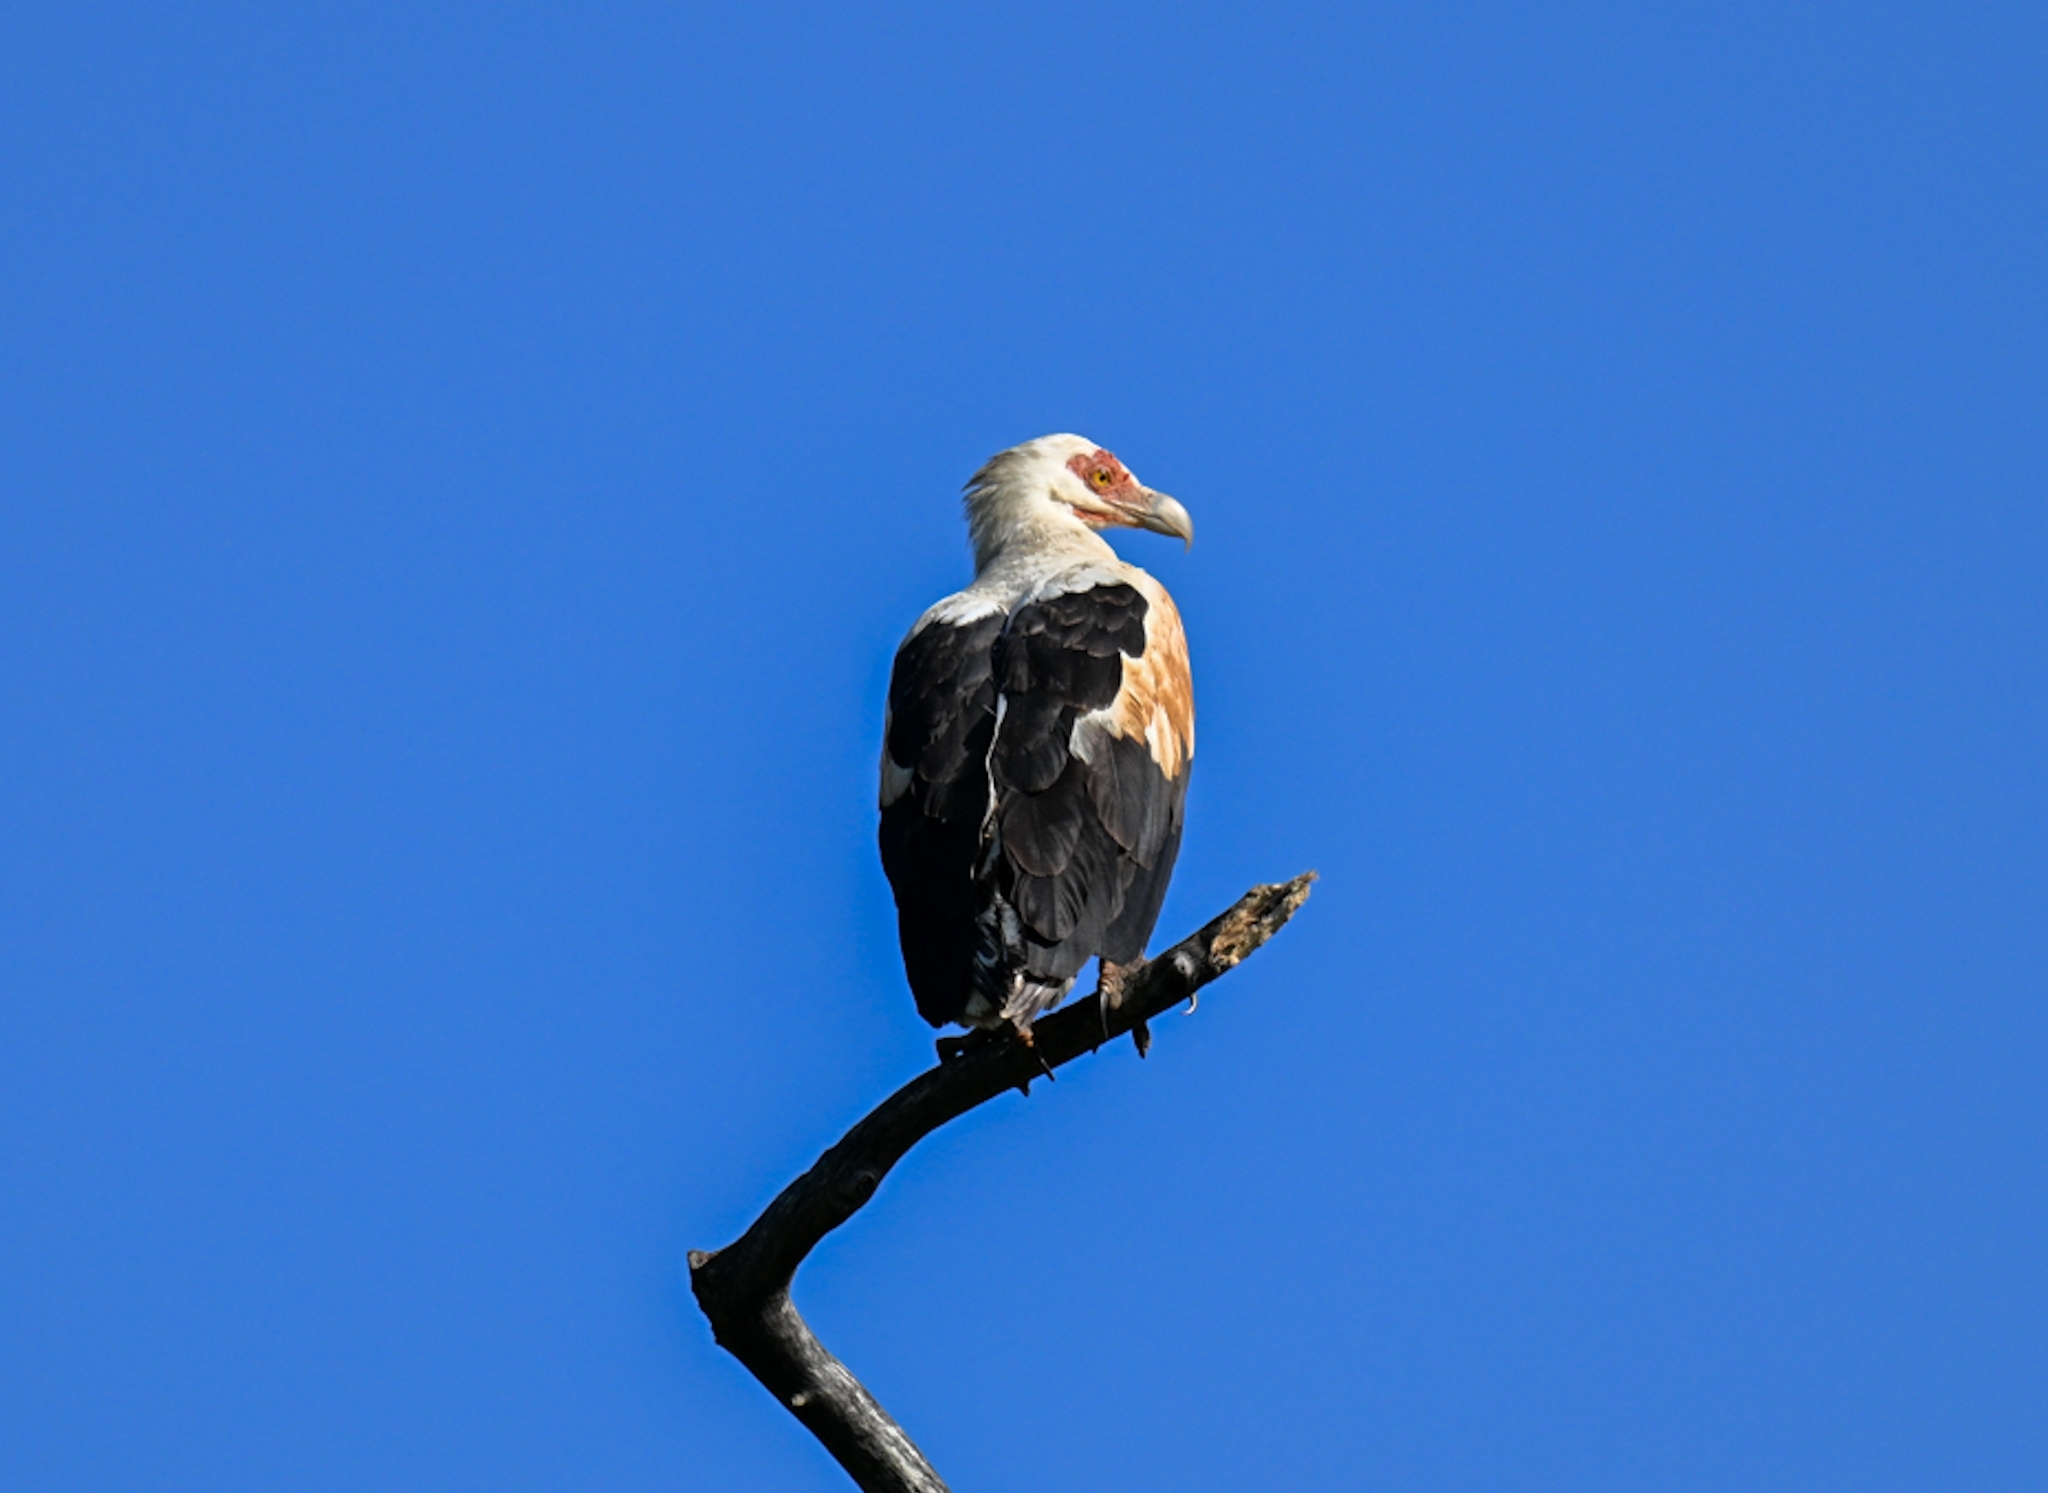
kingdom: Animalia
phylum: Chordata
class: Aves
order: Accipitriformes
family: Accipitridae
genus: Gypohierax
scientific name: Gypohierax angolensis
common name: Palm-nut vulture
